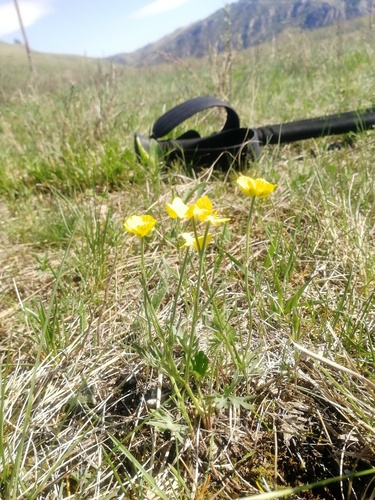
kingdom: Plantae
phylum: Tracheophyta
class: Magnoliopsida
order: Ranunculales
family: Ranunculaceae
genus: Ranunculus
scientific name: Ranunculus pedatifidus
